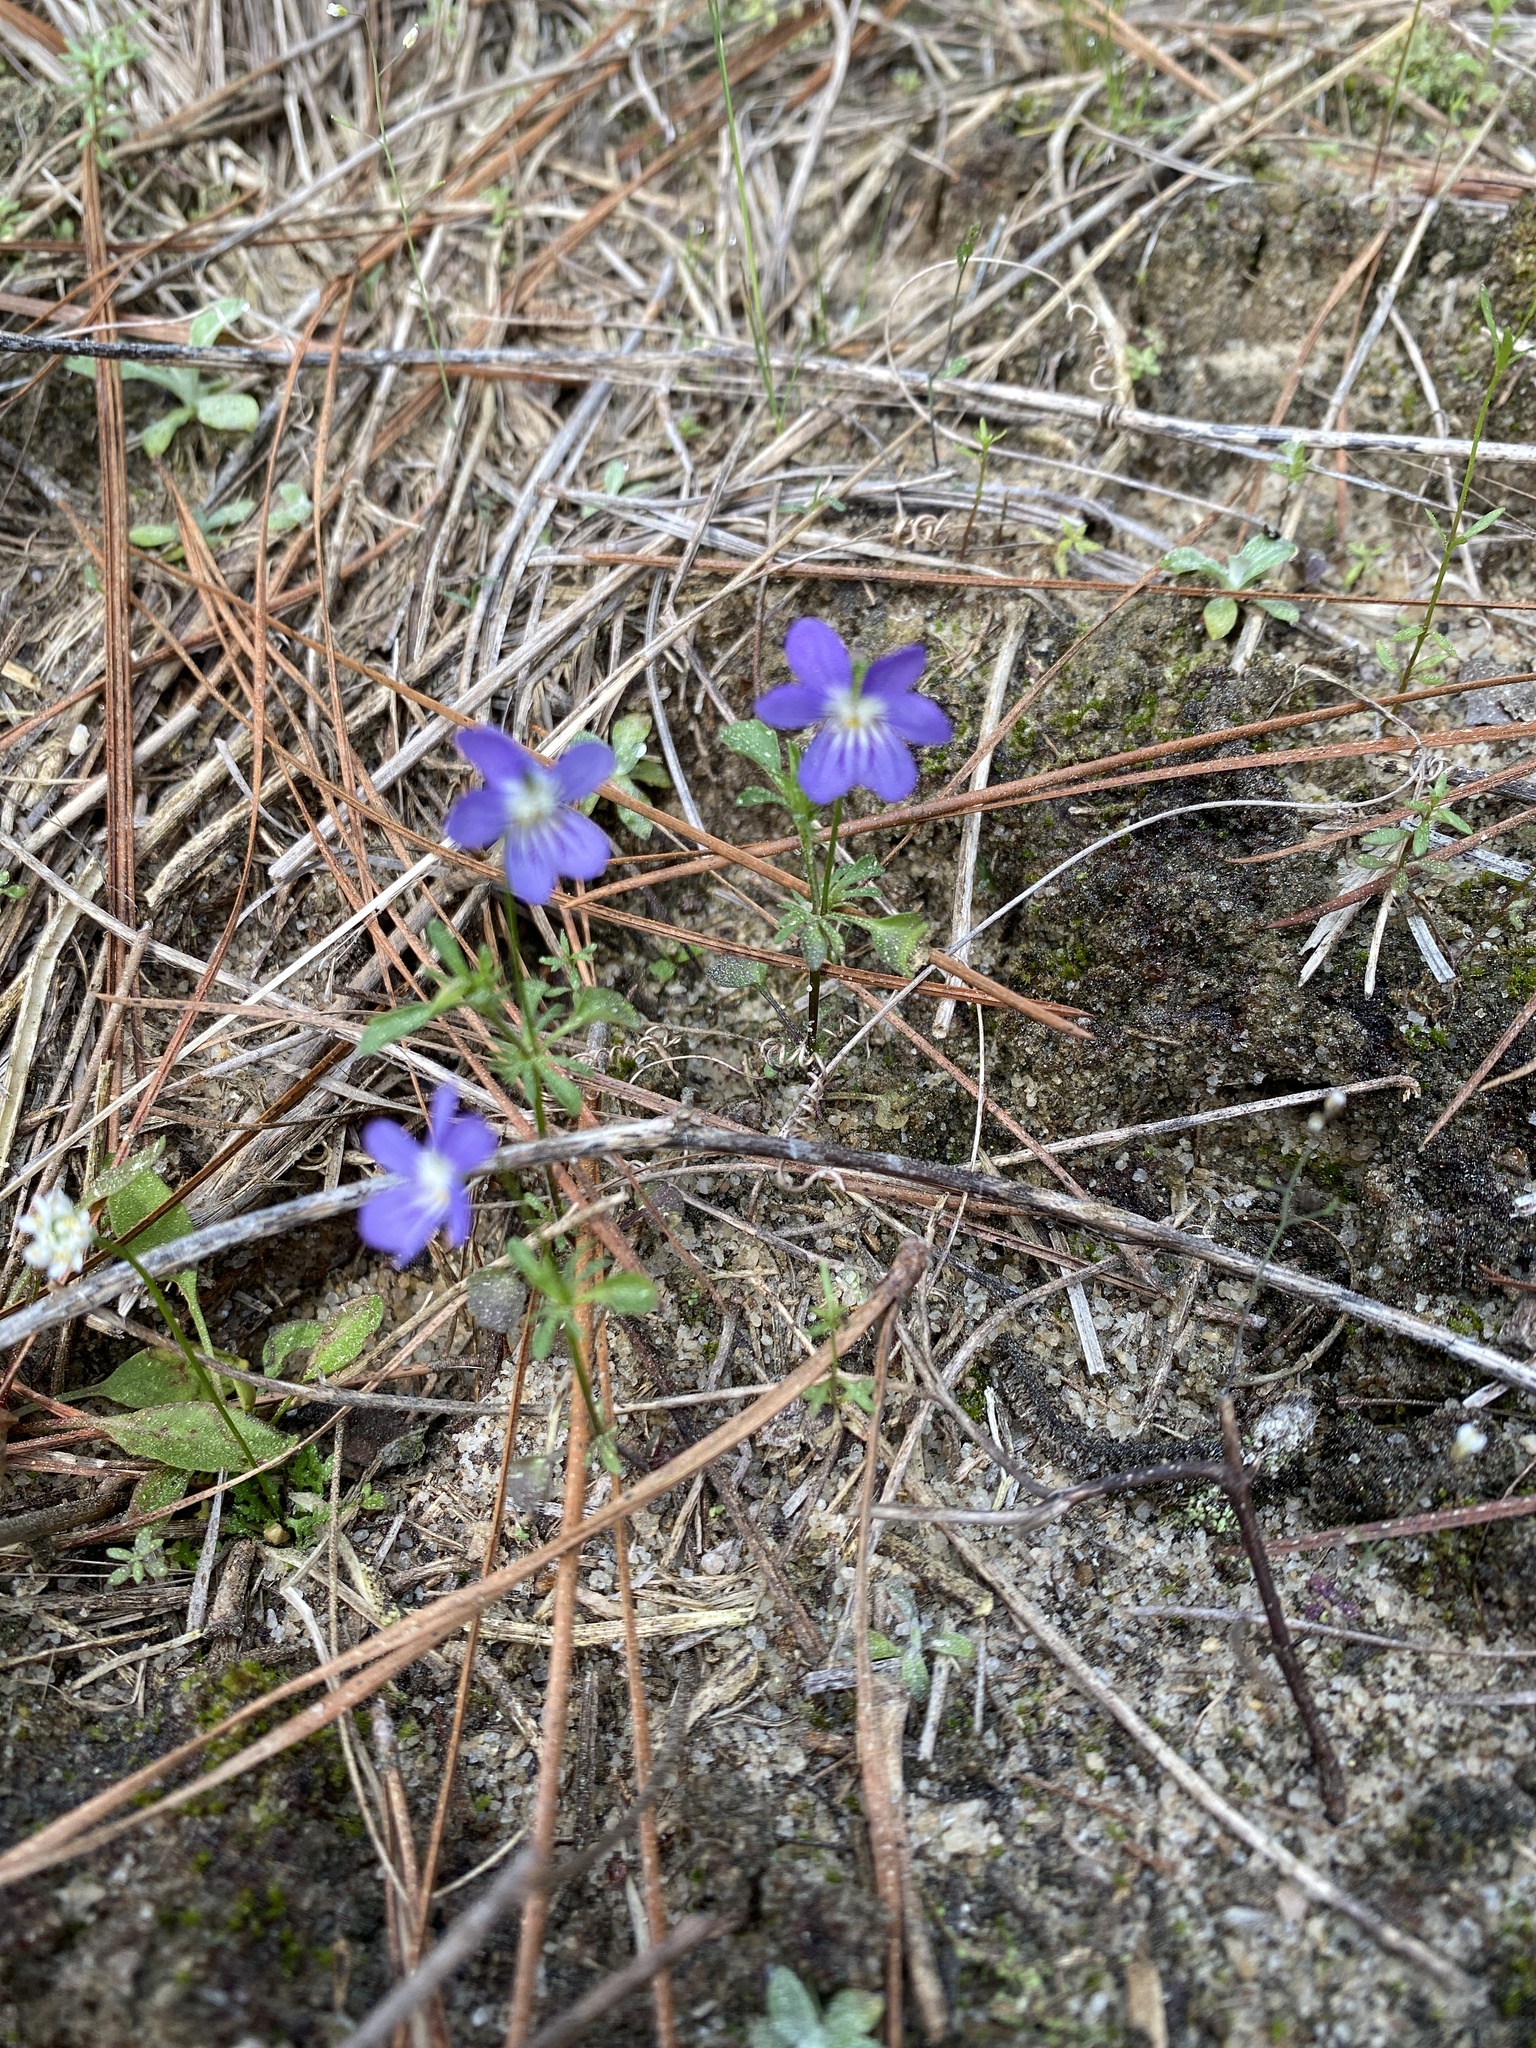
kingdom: Plantae
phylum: Tracheophyta
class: Magnoliopsida
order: Malpighiales
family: Violaceae
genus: Viola
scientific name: Viola pedata
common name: Pansy violet
